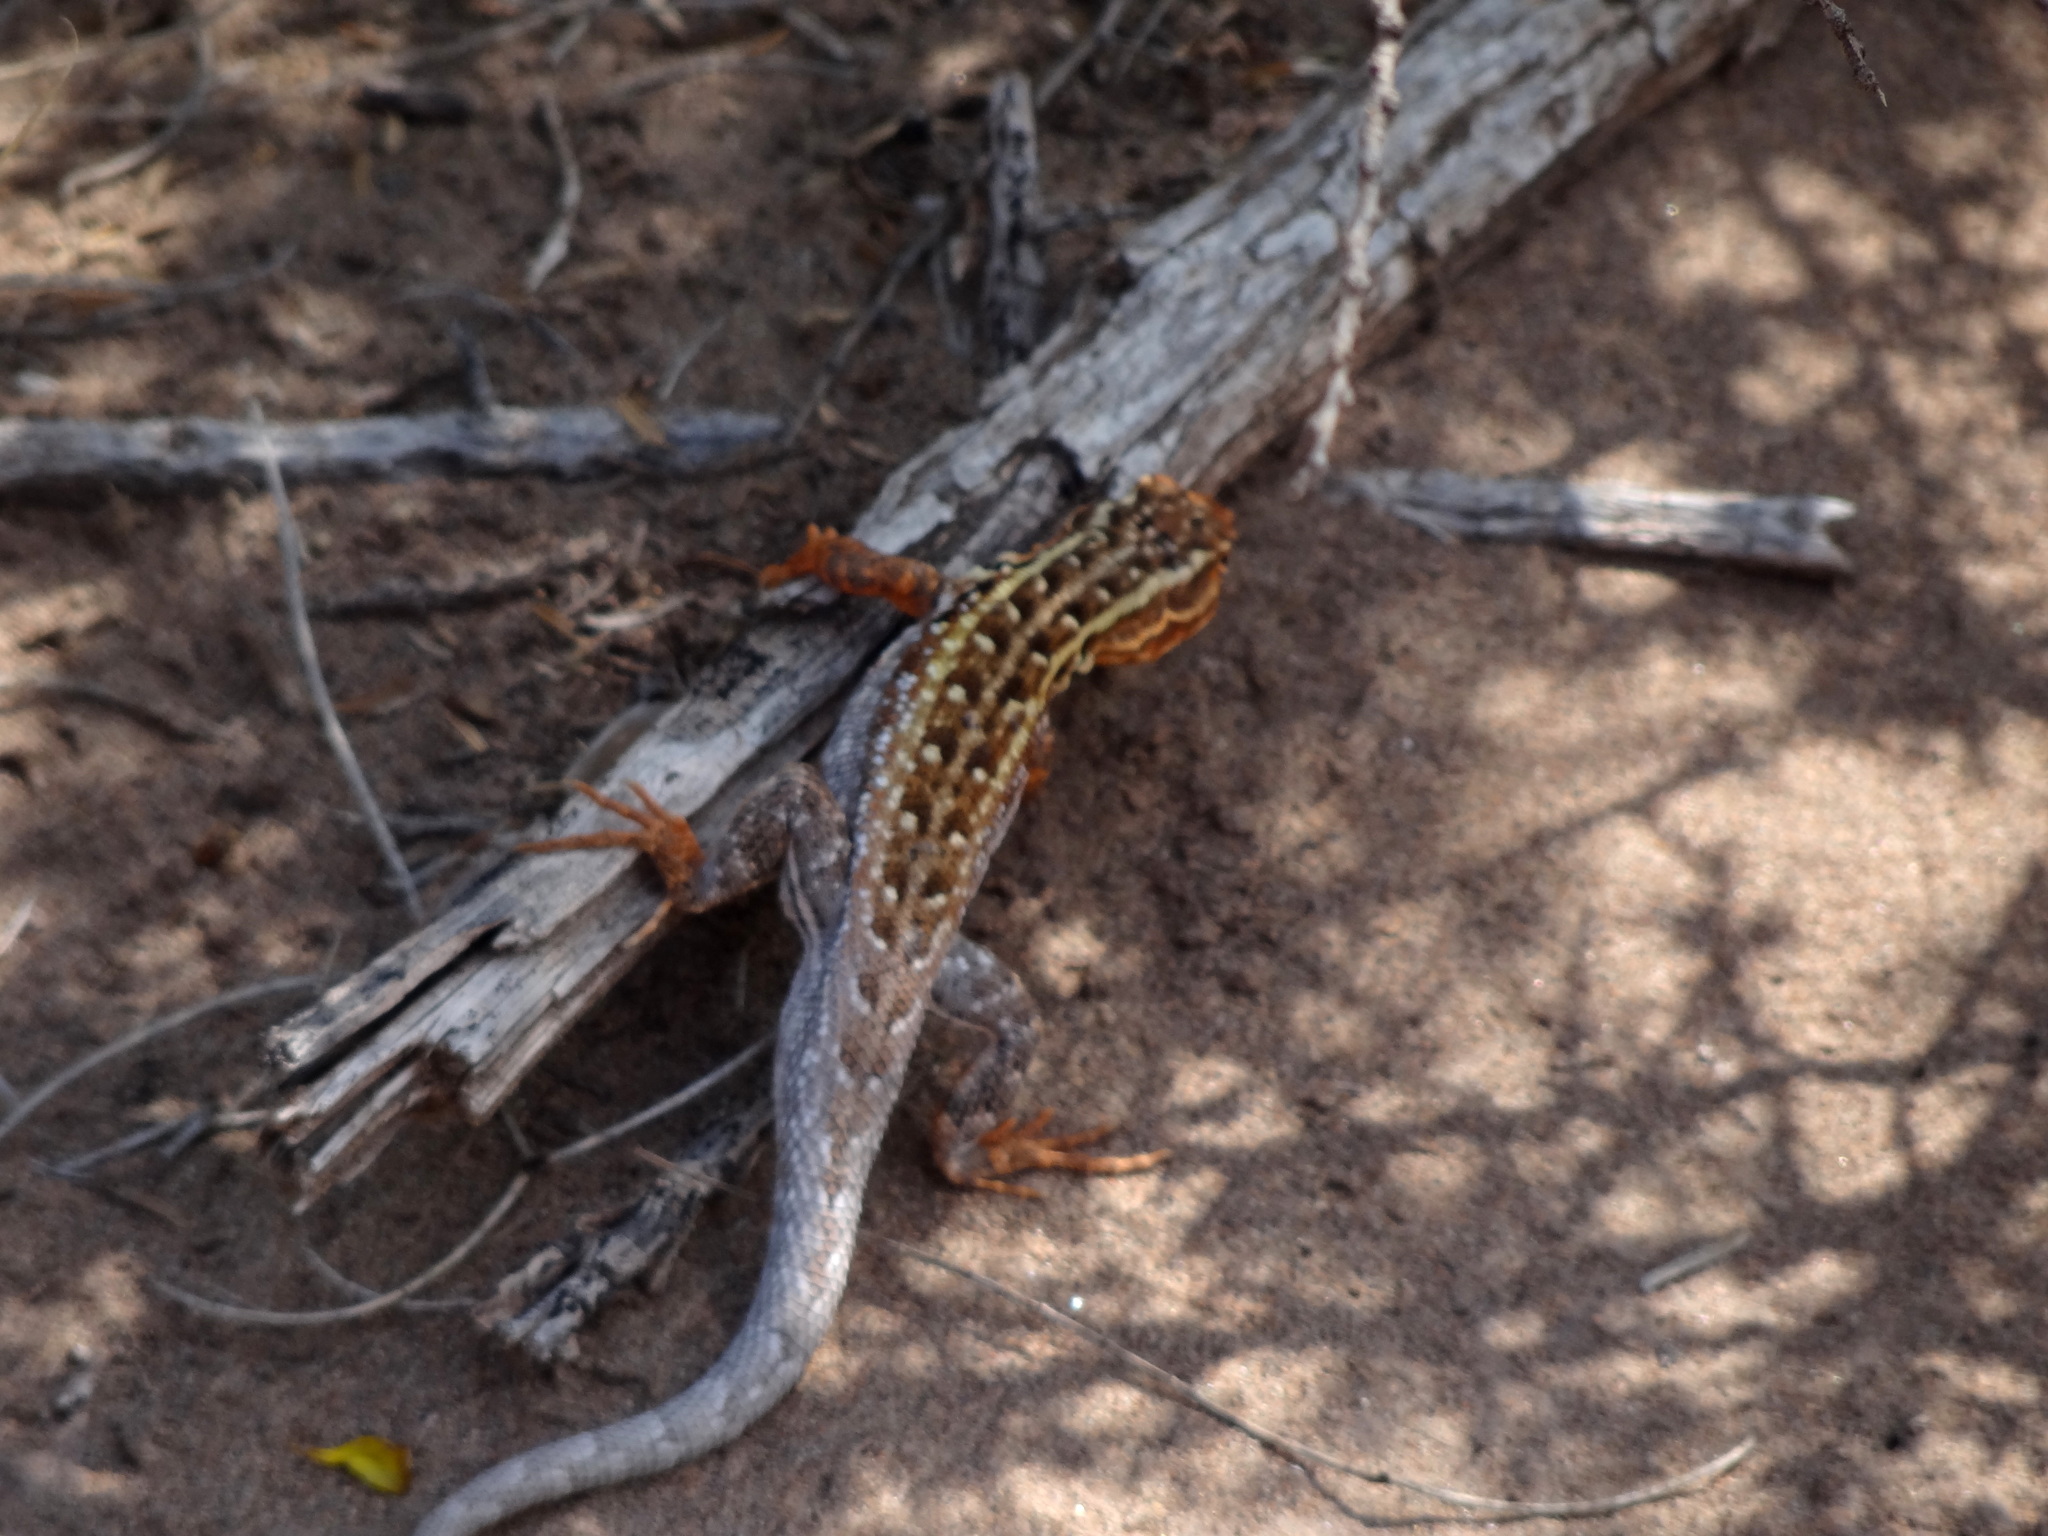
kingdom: Animalia
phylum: Chordata
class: Squamata
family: Liolaemidae
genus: Liolaemus
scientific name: Liolaemus darwinii
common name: Darwin's tree iguana
